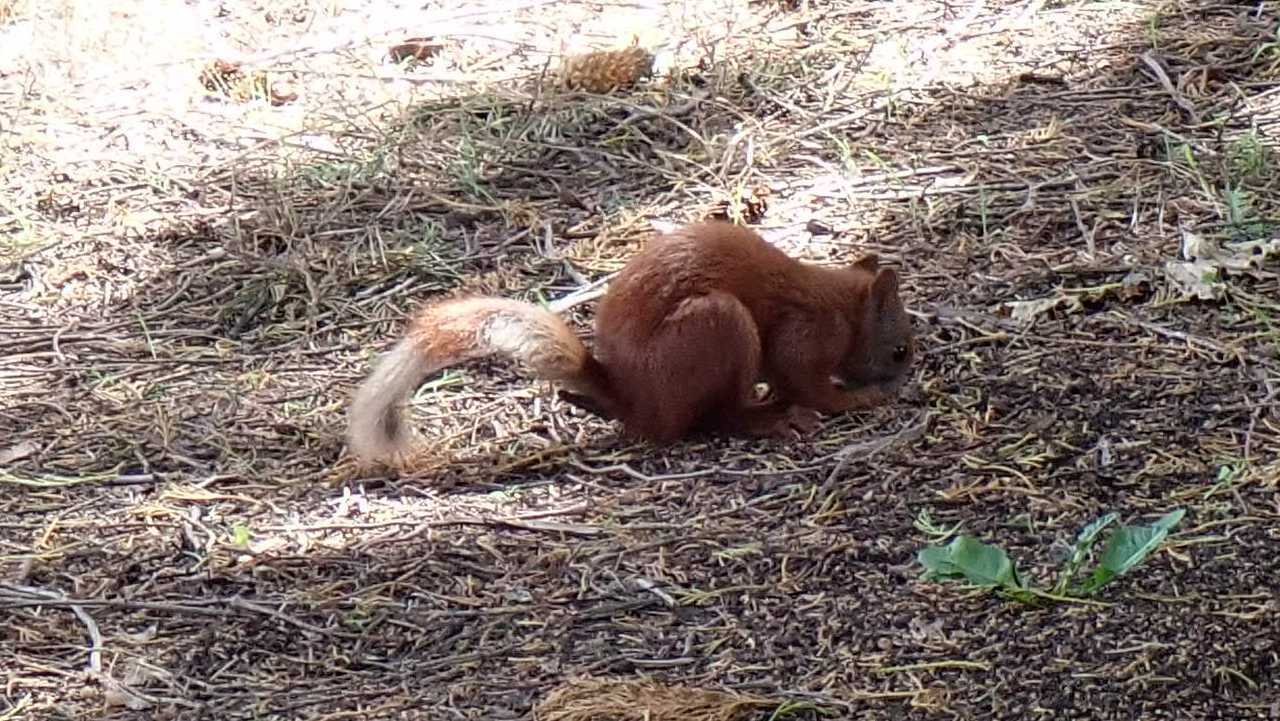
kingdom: Animalia
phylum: Chordata
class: Mammalia
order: Rodentia
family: Sciuridae
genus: Sciurus
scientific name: Sciurus vulgaris
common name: Eurasian red squirrel
